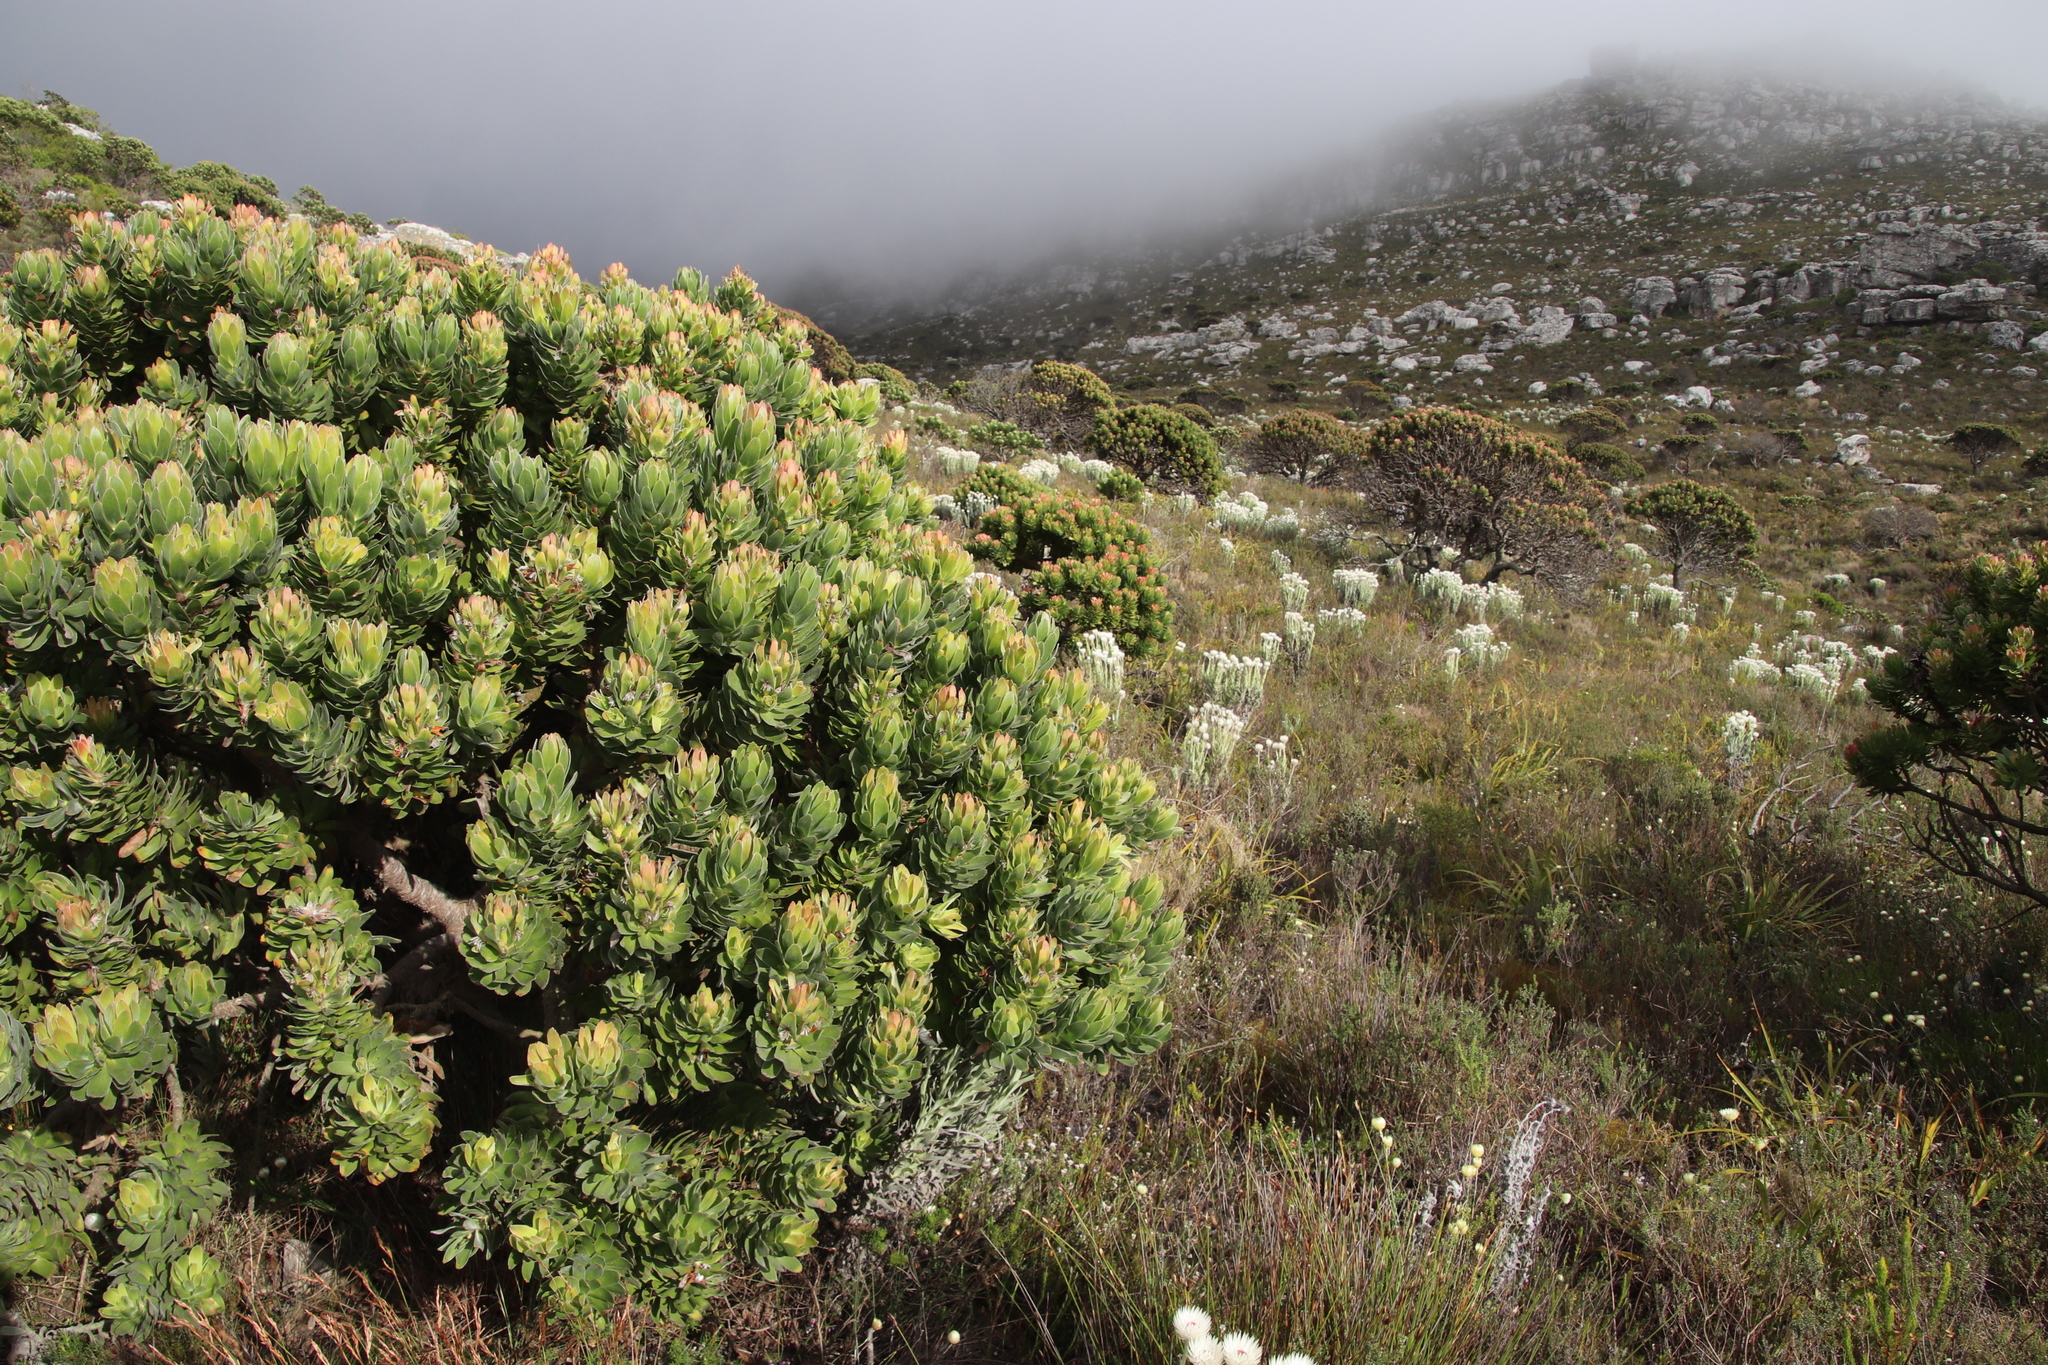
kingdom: Plantae
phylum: Tracheophyta
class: Magnoliopsida
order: Proteales
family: Proteaceae
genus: Mimetes
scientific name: Mimetes fimbriifolius
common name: Fringed bottlebrush
